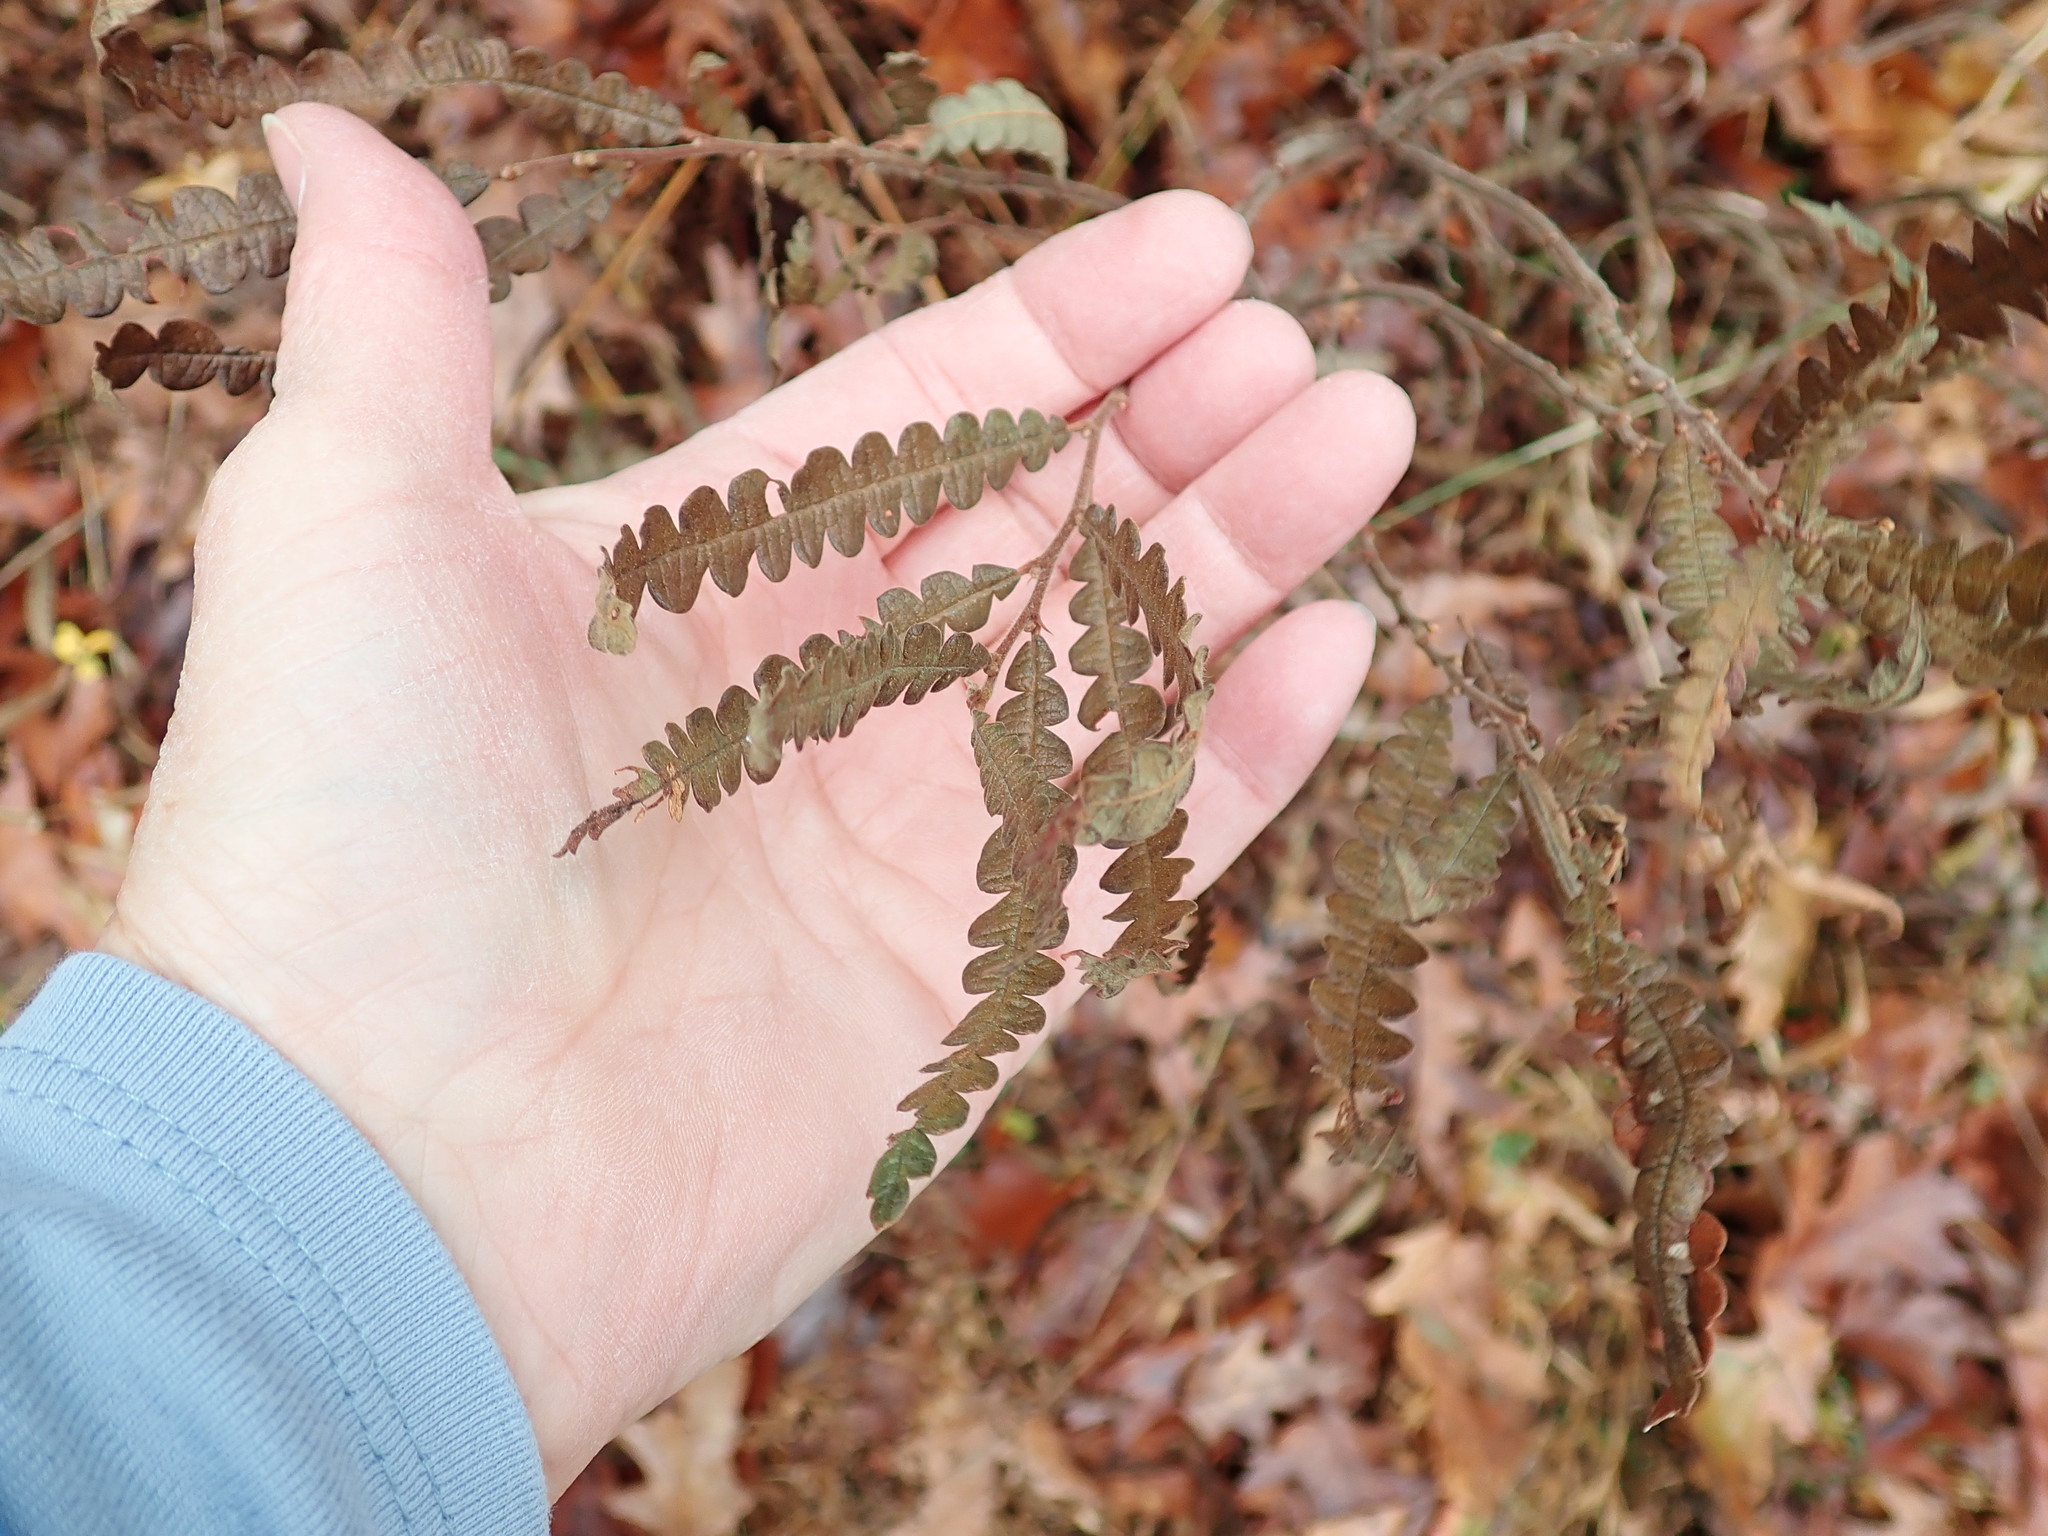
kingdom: Plantae
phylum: Tracheophyta
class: Magnoliopsida
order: Fagales
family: Myricaceae
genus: Comptonia
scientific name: Comptonia peregrina
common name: Sweet-fern
